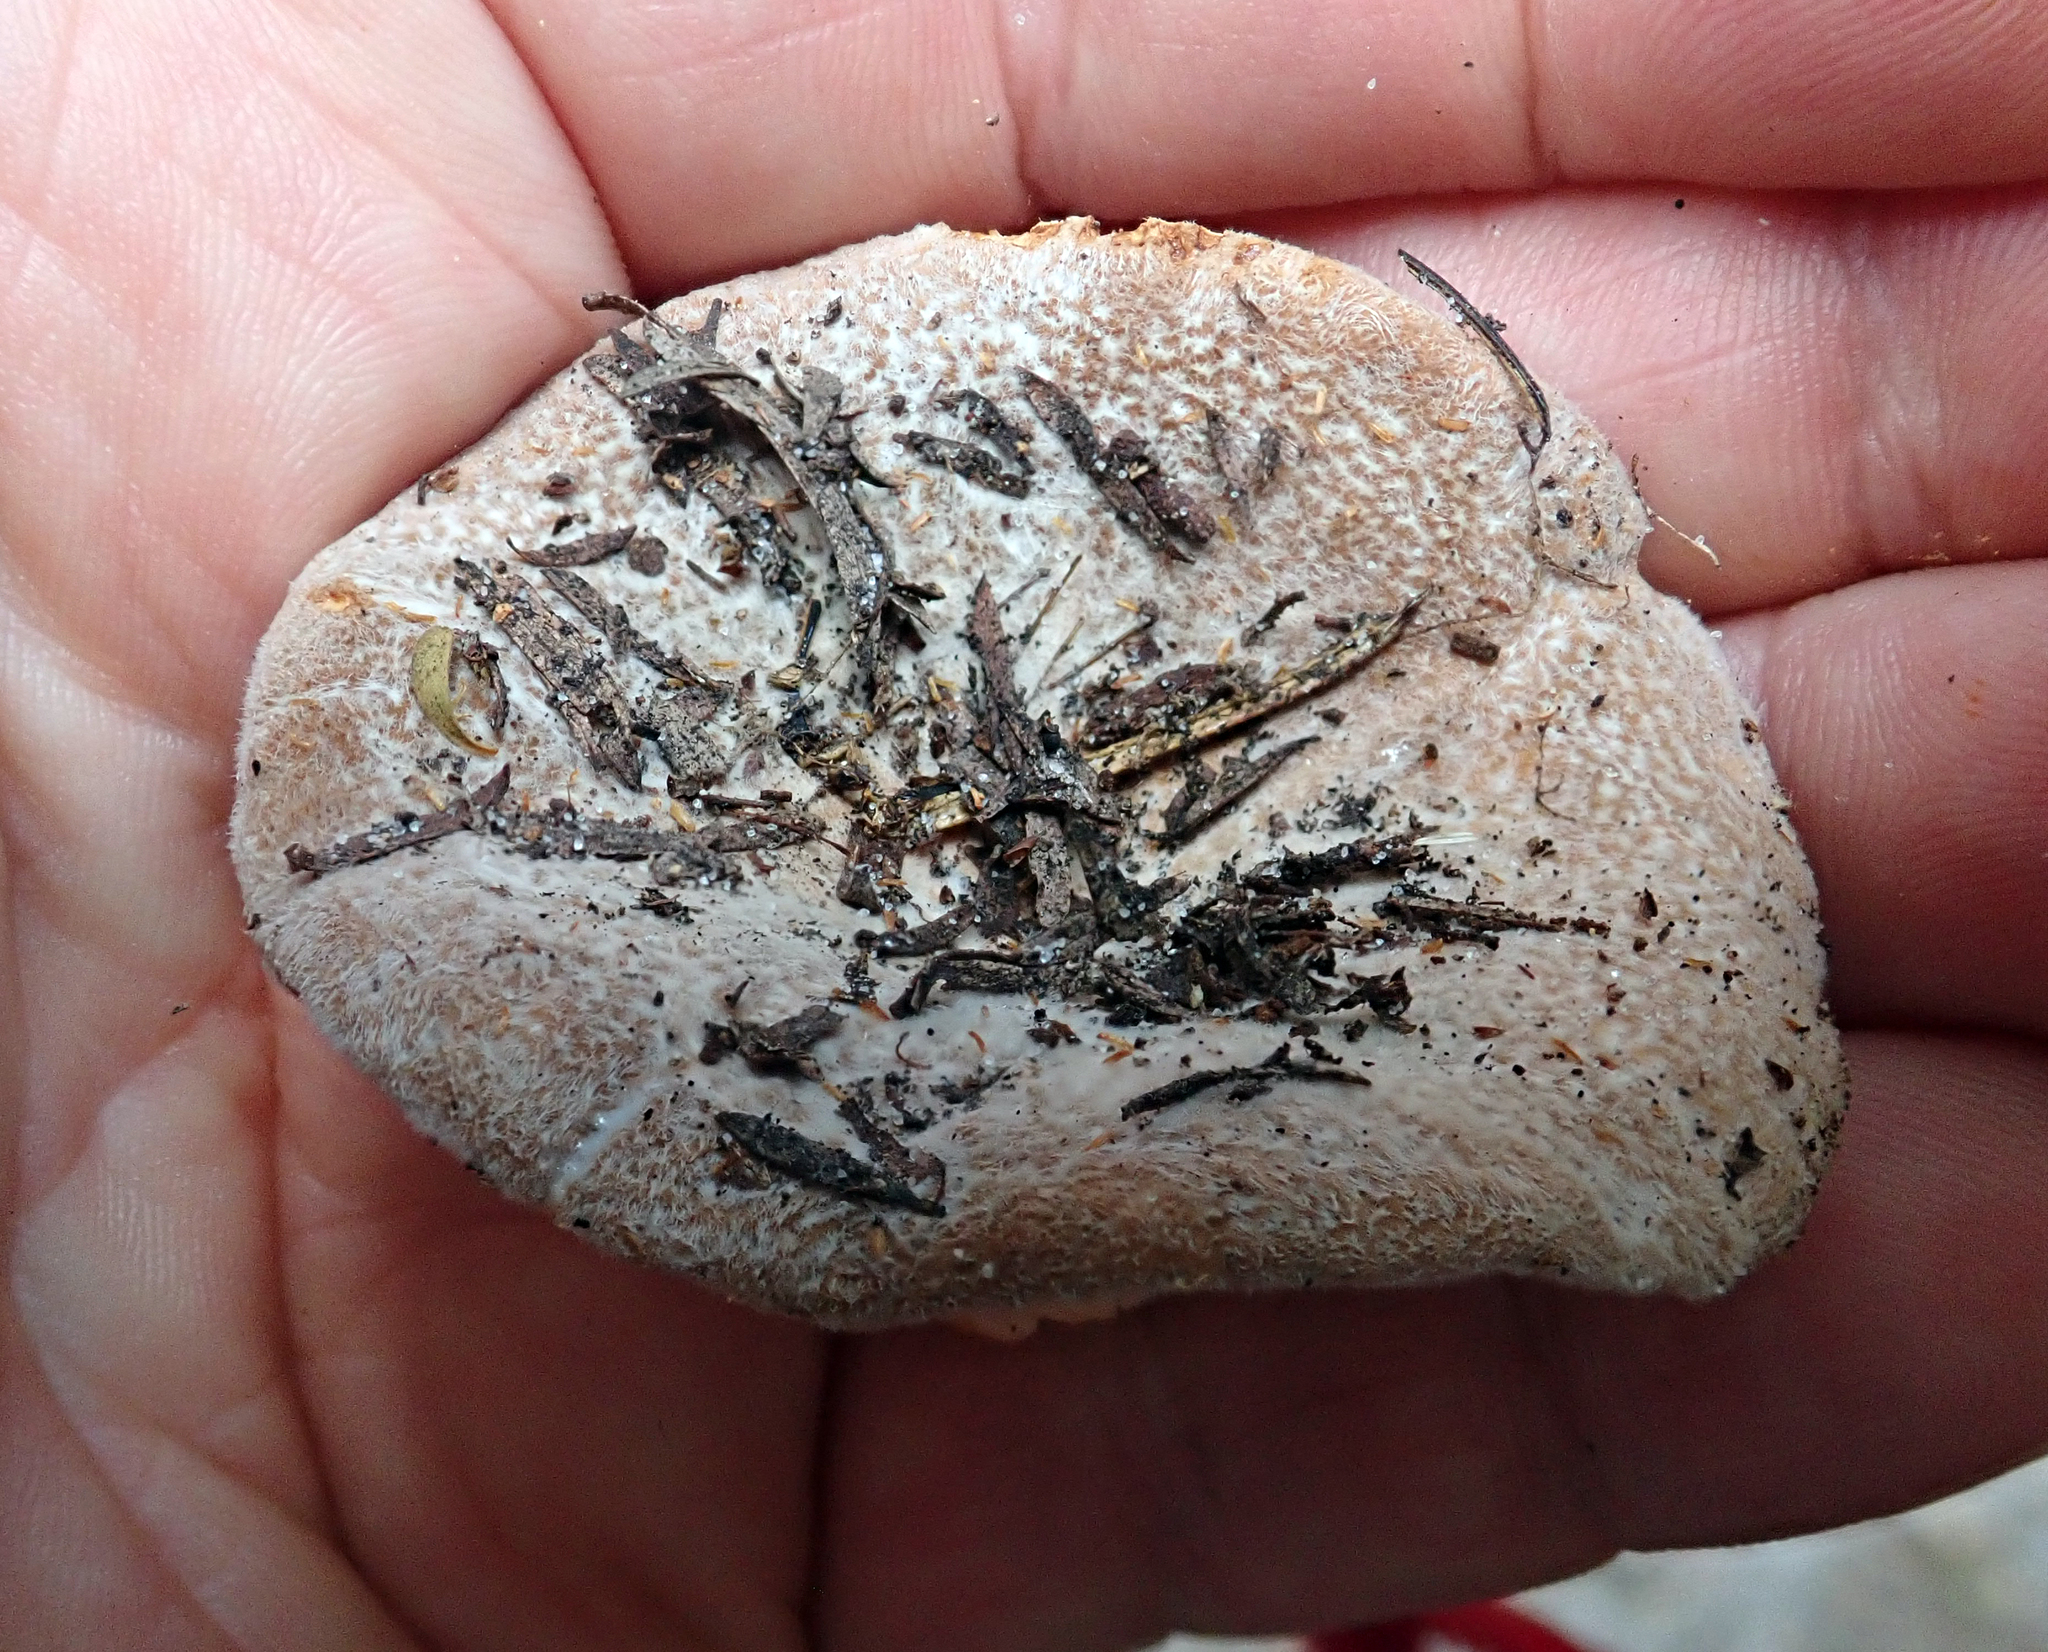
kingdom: Fungi
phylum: Basidiomycota
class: Agaricomycetes
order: Russulales
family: Russulaceae
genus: Lactifluus
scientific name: Lactifluus clarkeae
